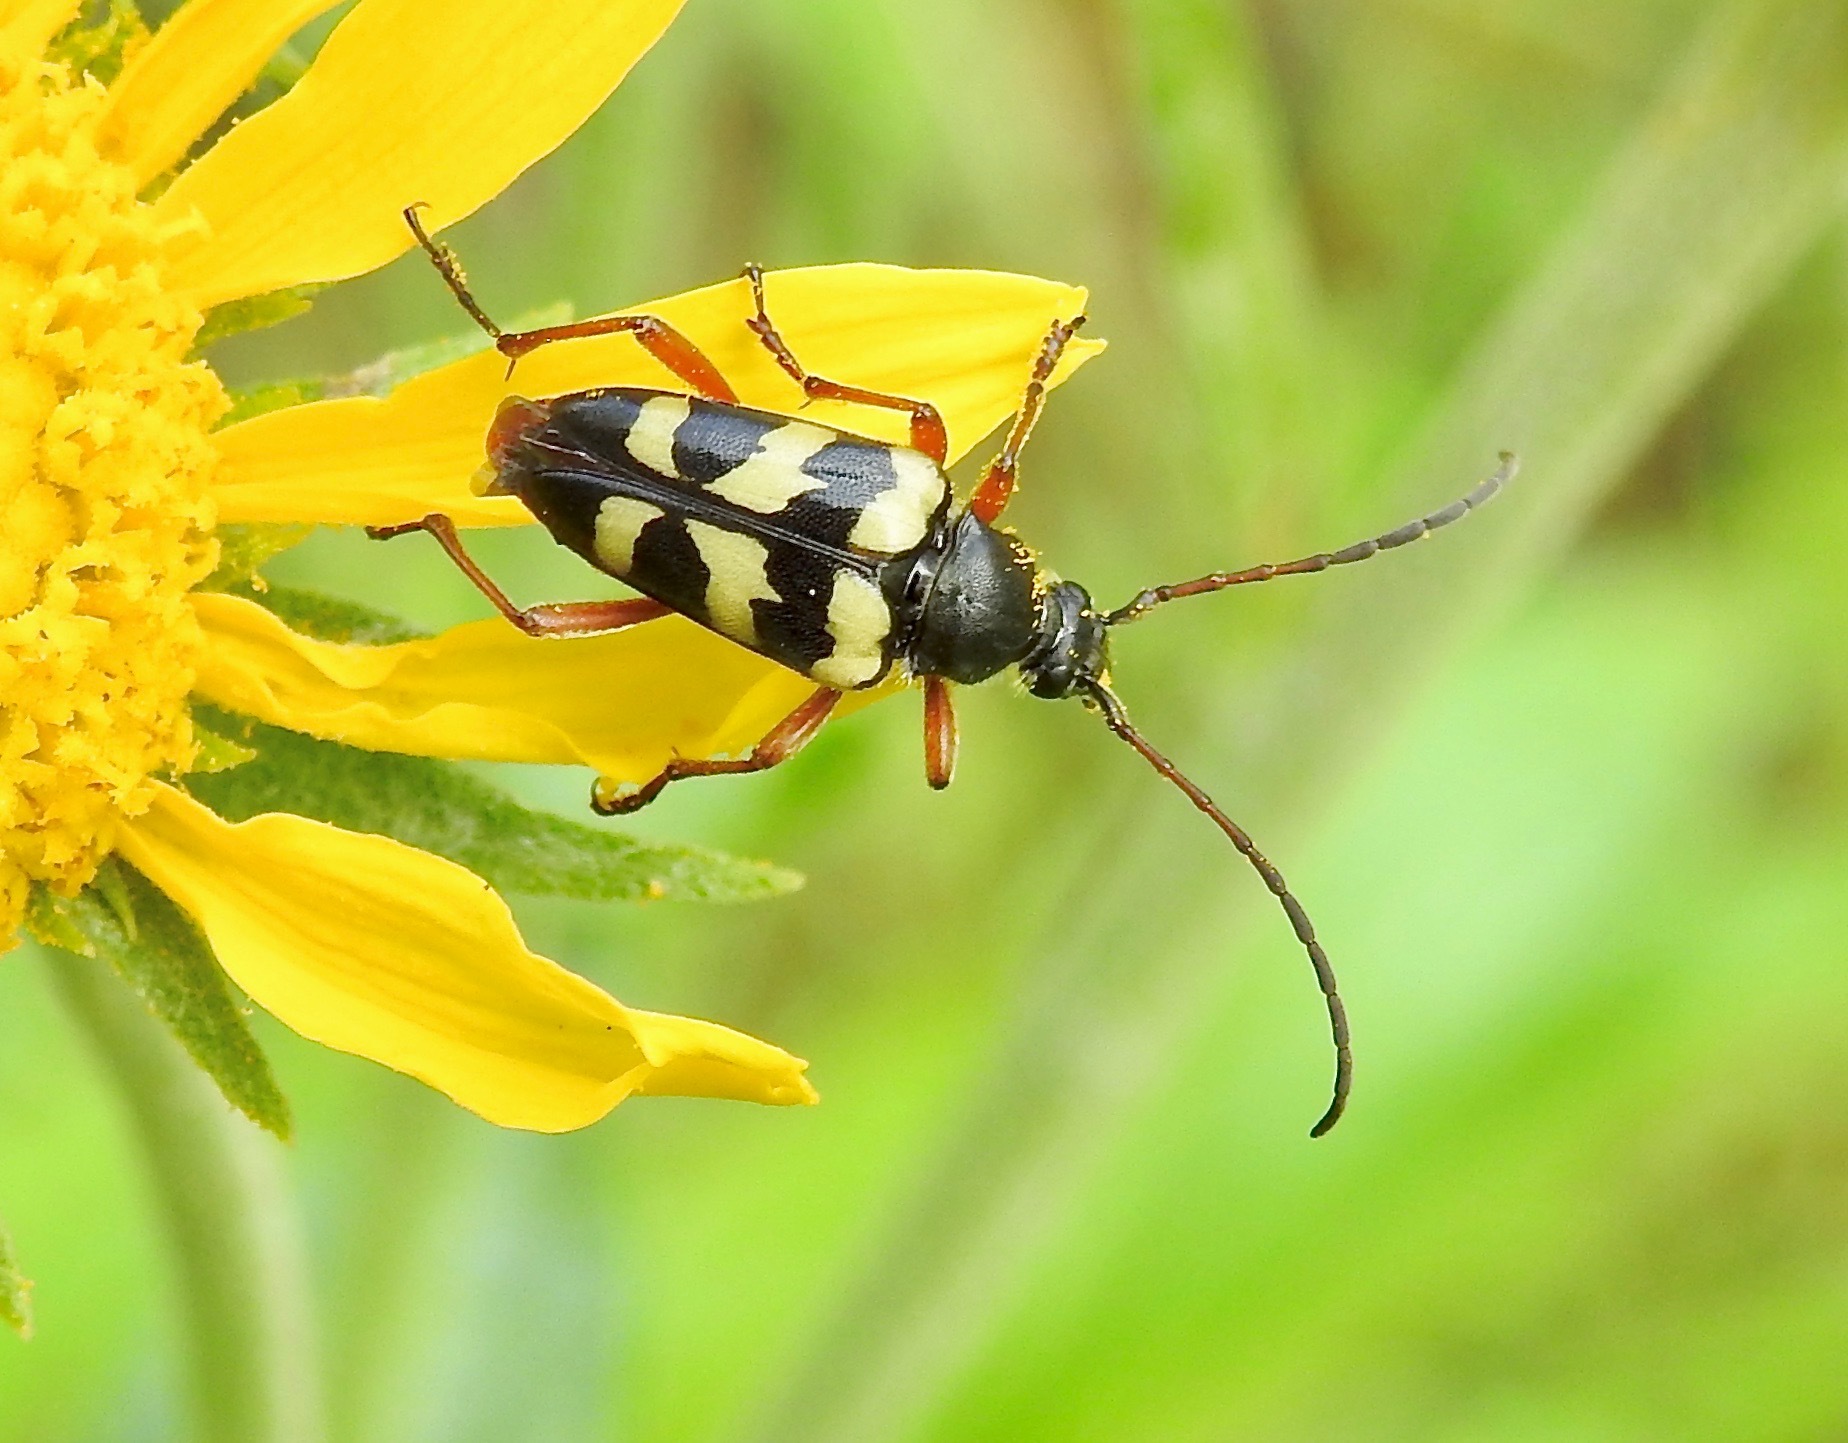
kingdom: Animalia
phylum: Arthropoda
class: Insecta
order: Coleoptera
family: Cerambycidae
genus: Judolia
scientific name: Judolia instabilis
